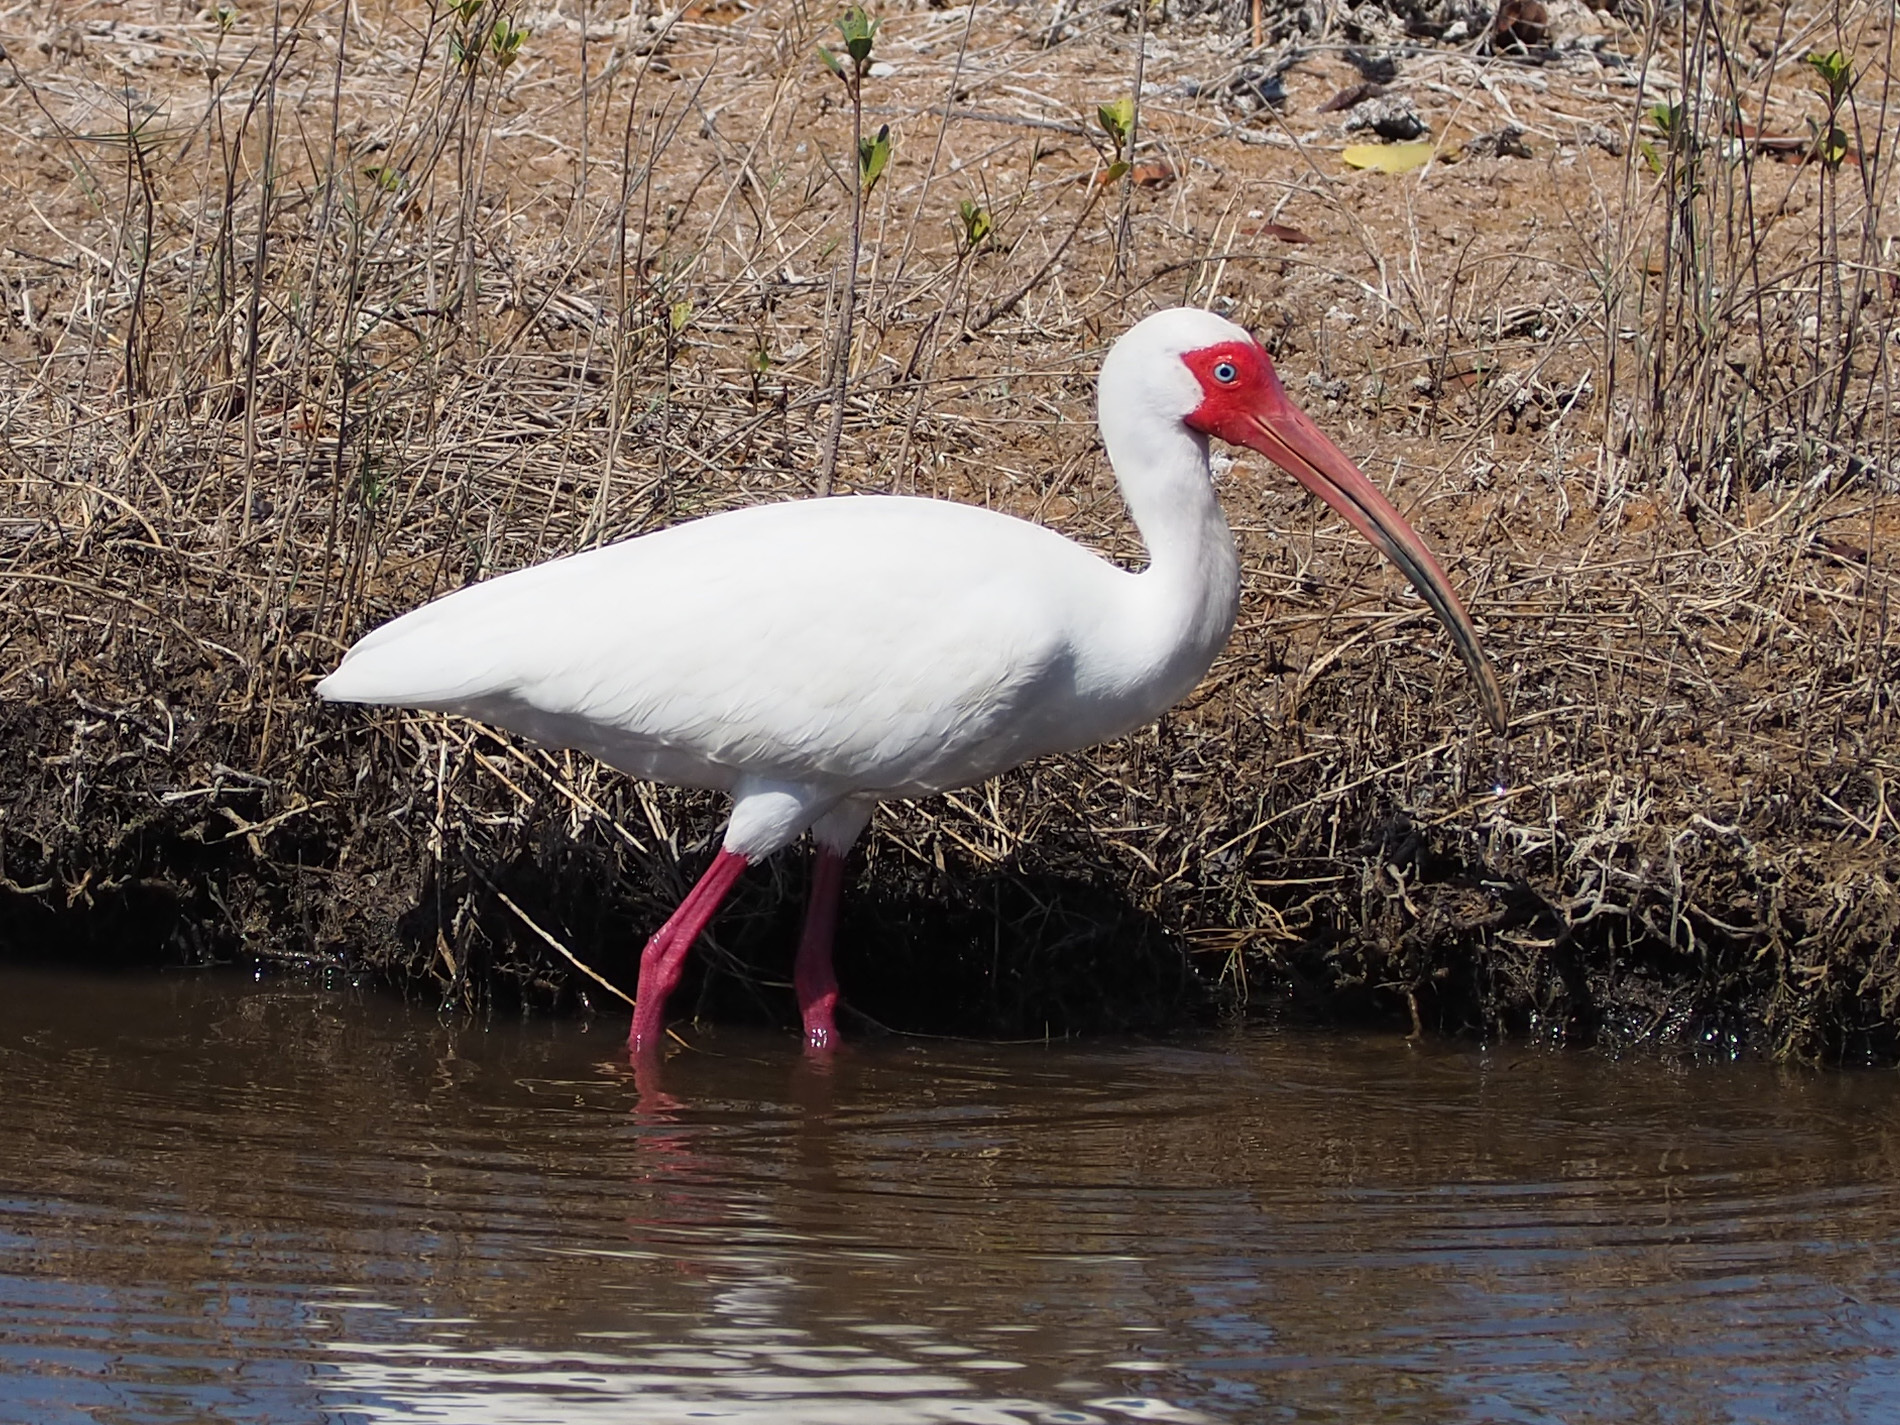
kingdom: Animalia
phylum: Chordata
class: Aves
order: Pelecaniformes
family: Threskiornithidae
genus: Eudocimus
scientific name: Eudocimus albus
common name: White ibis
